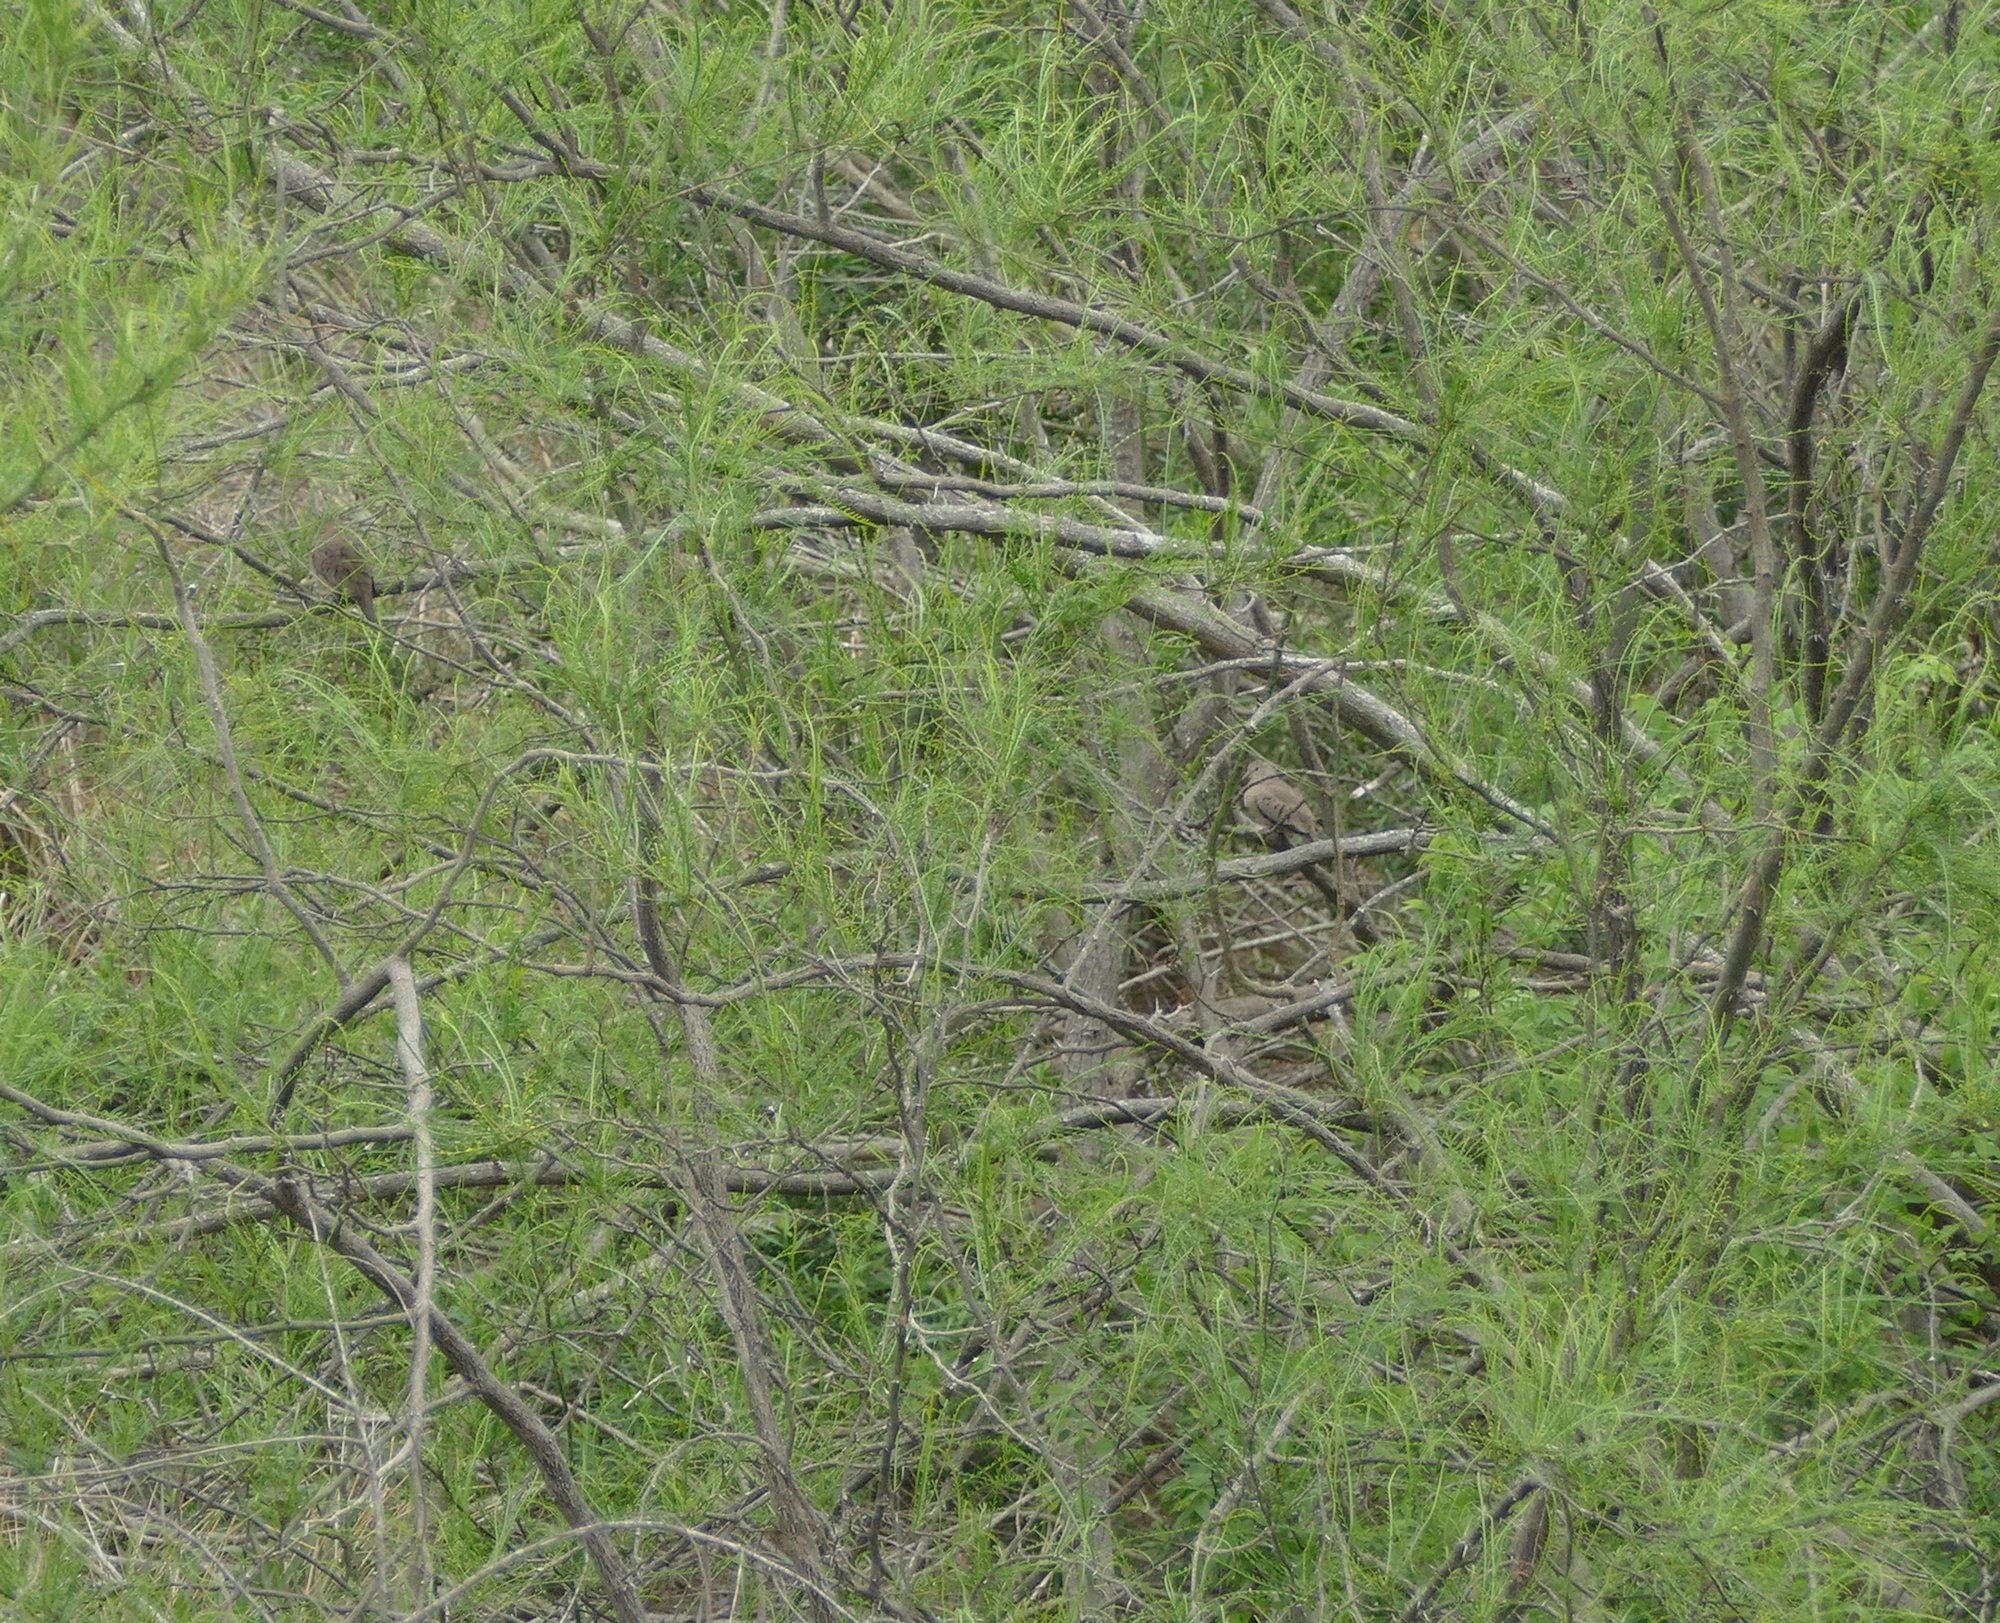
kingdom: Plantae
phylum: Tracheophyta
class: Magnoliopsida
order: Fabales
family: Fabaceae
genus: Parkinsonia
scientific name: Parkinsonia aculeata
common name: Jerusalem thorn
